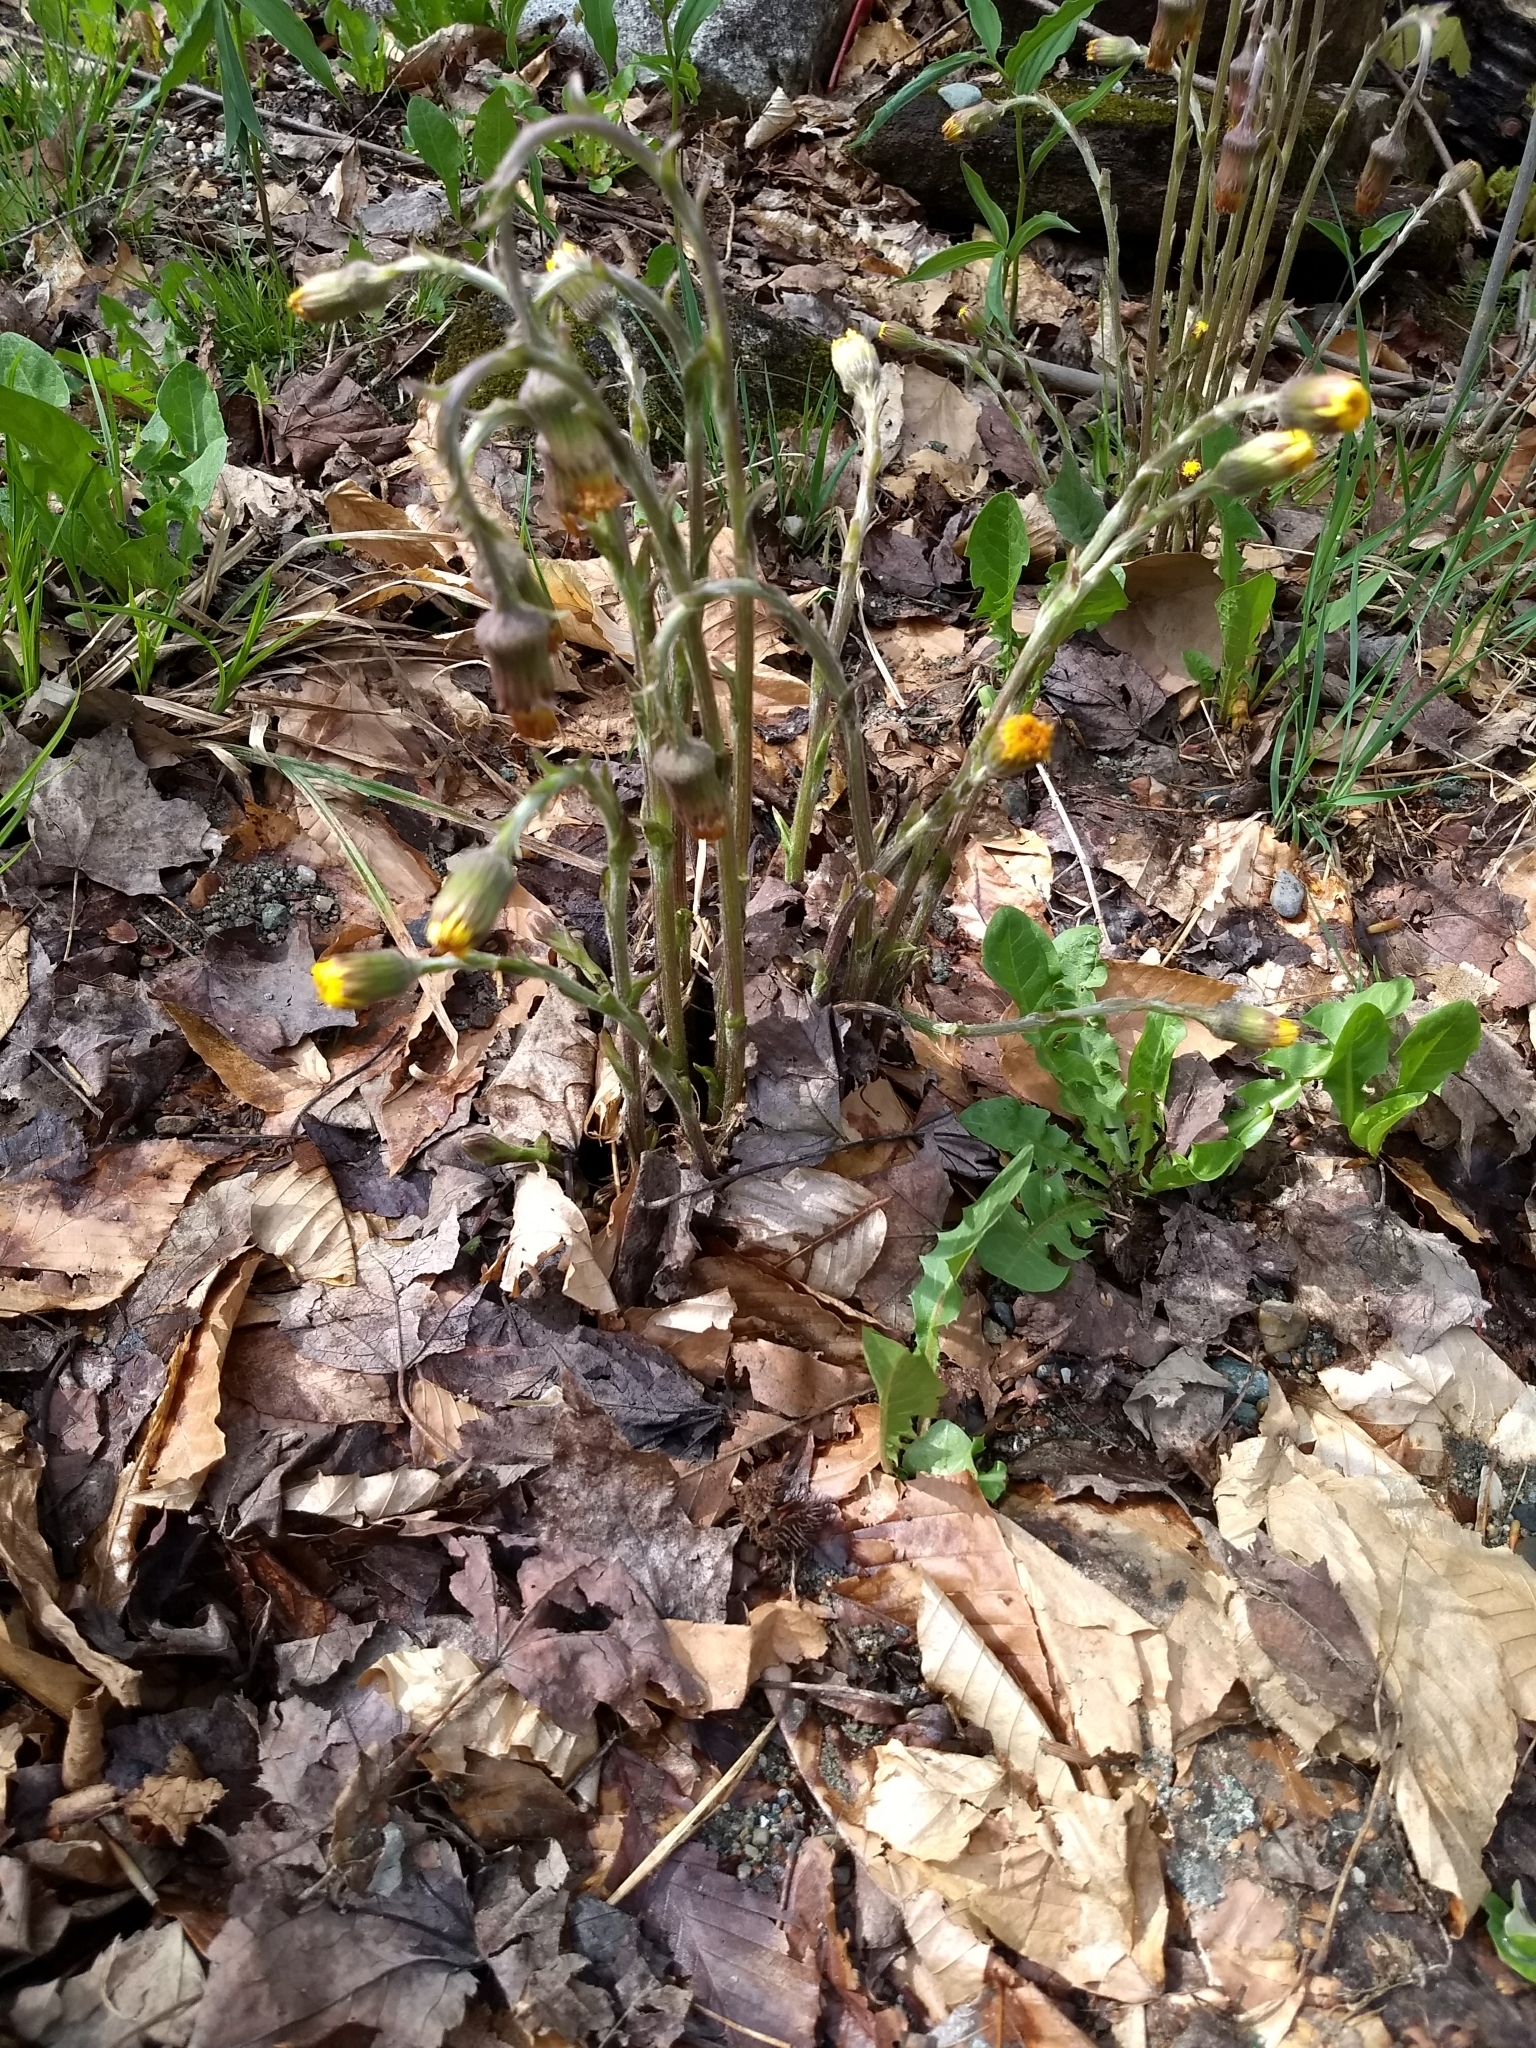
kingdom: Plantae
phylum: Tracheophyta
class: Magnoliopsida
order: Asterales
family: Asteraceae
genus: Tussilago
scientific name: Tussilago farfara
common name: Coltsfoot
